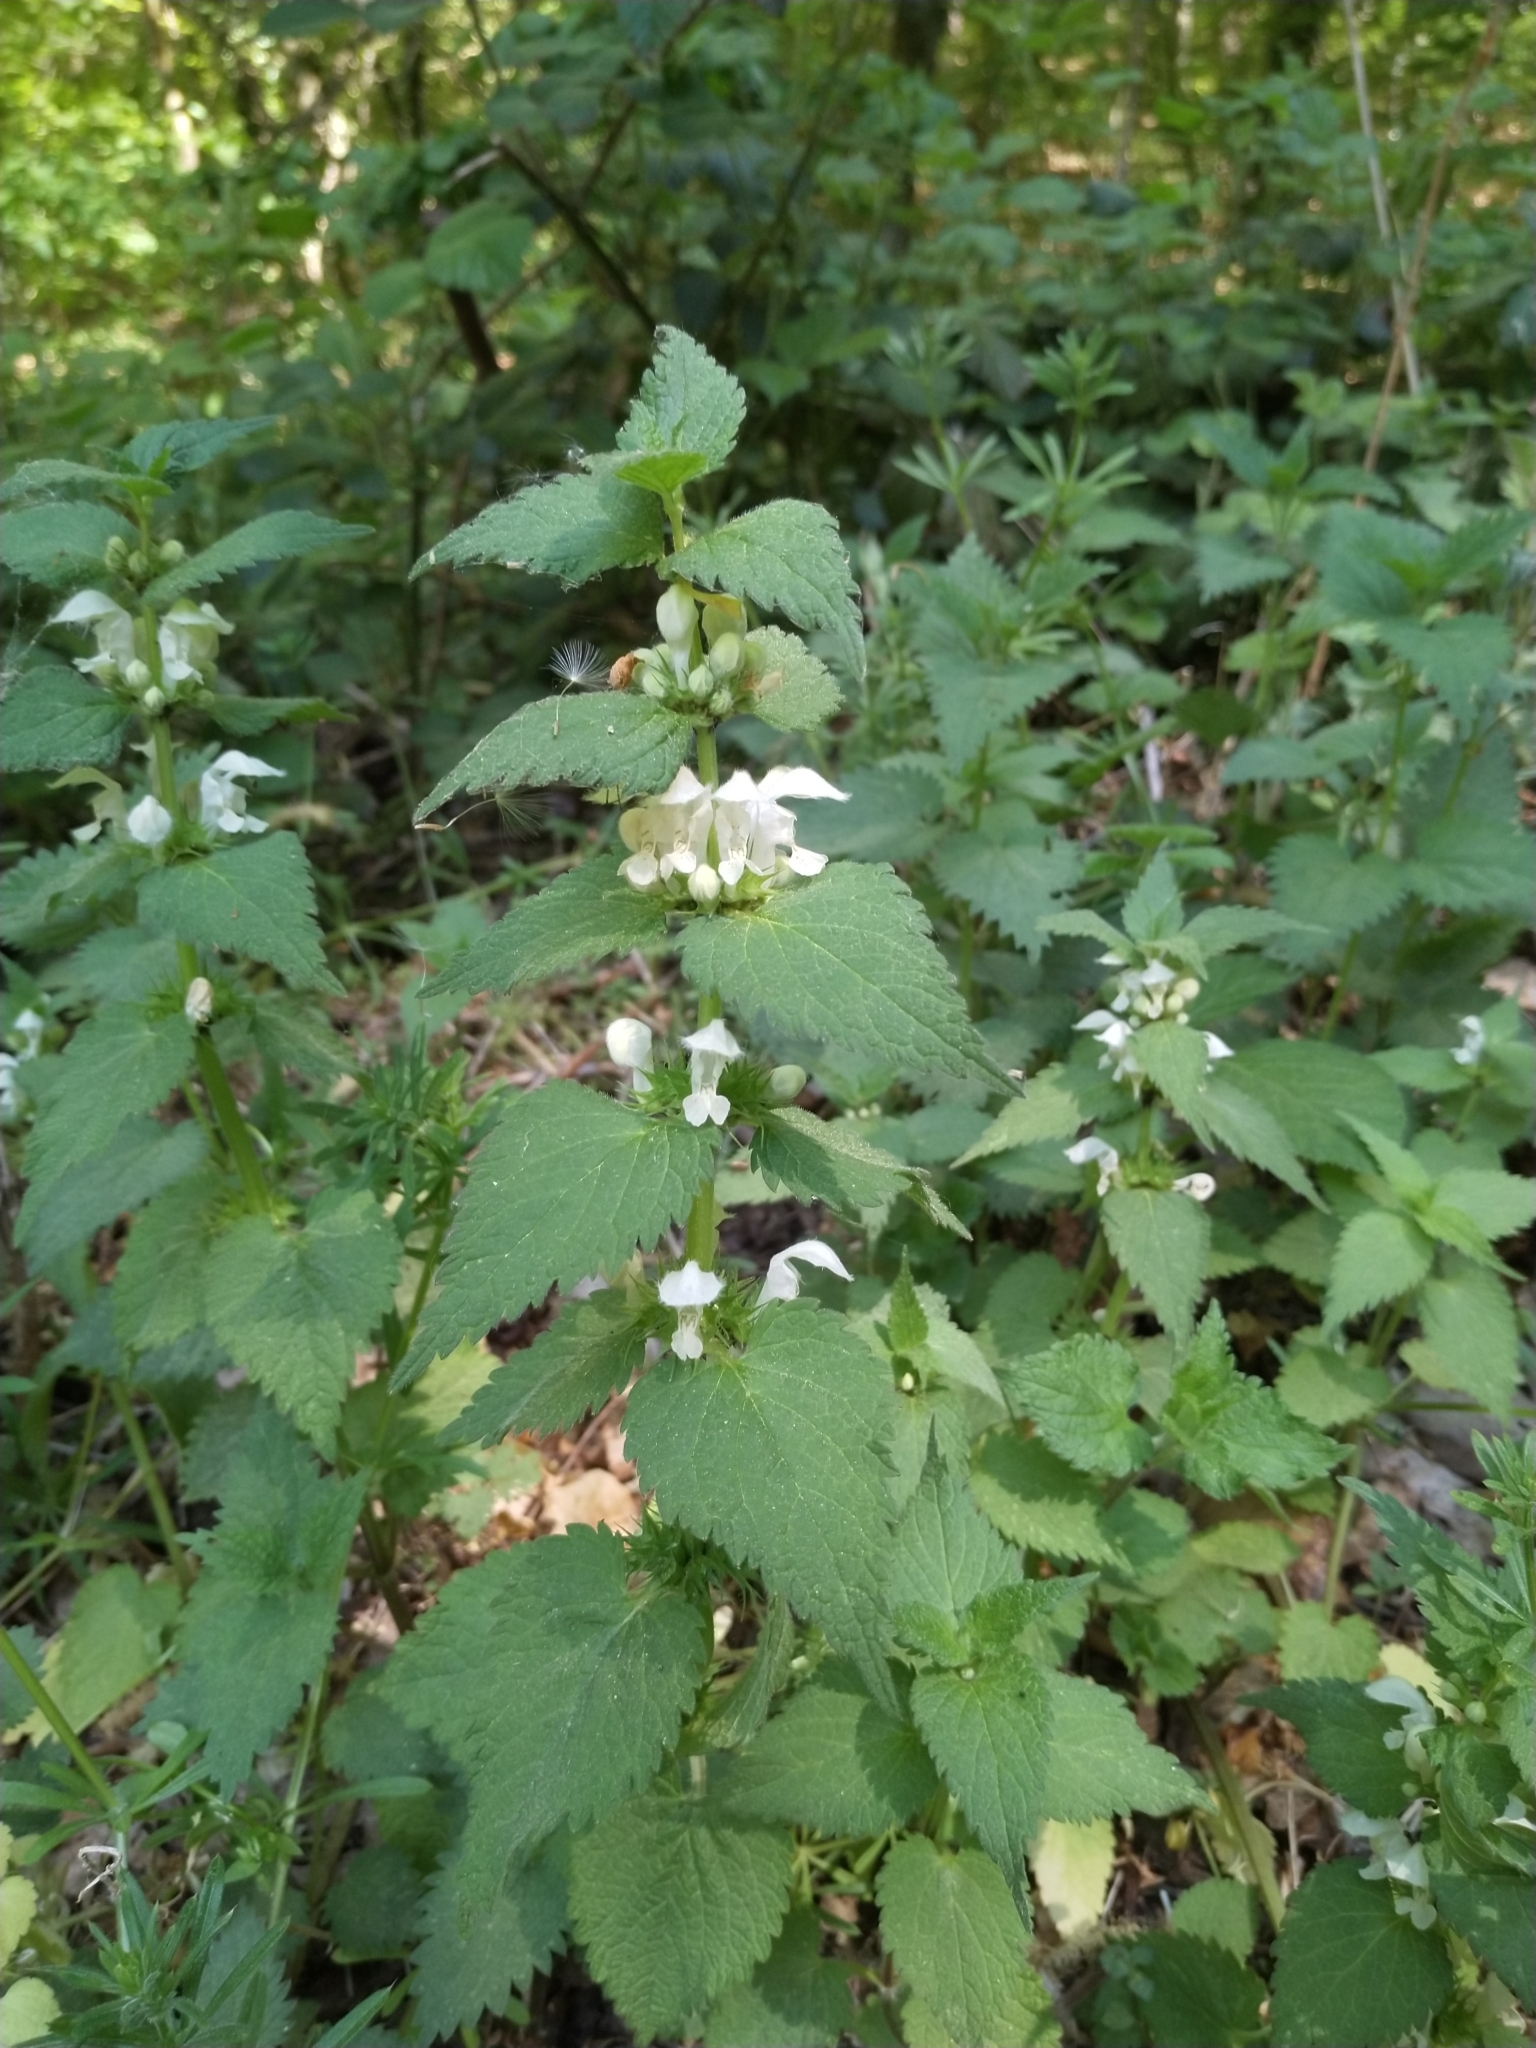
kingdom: Plantae
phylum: Tracheophyta
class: Magnoliopsida
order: Lamiales
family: Lamiaceae
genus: Lamium
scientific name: Lamium album
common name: White dead-nettle
